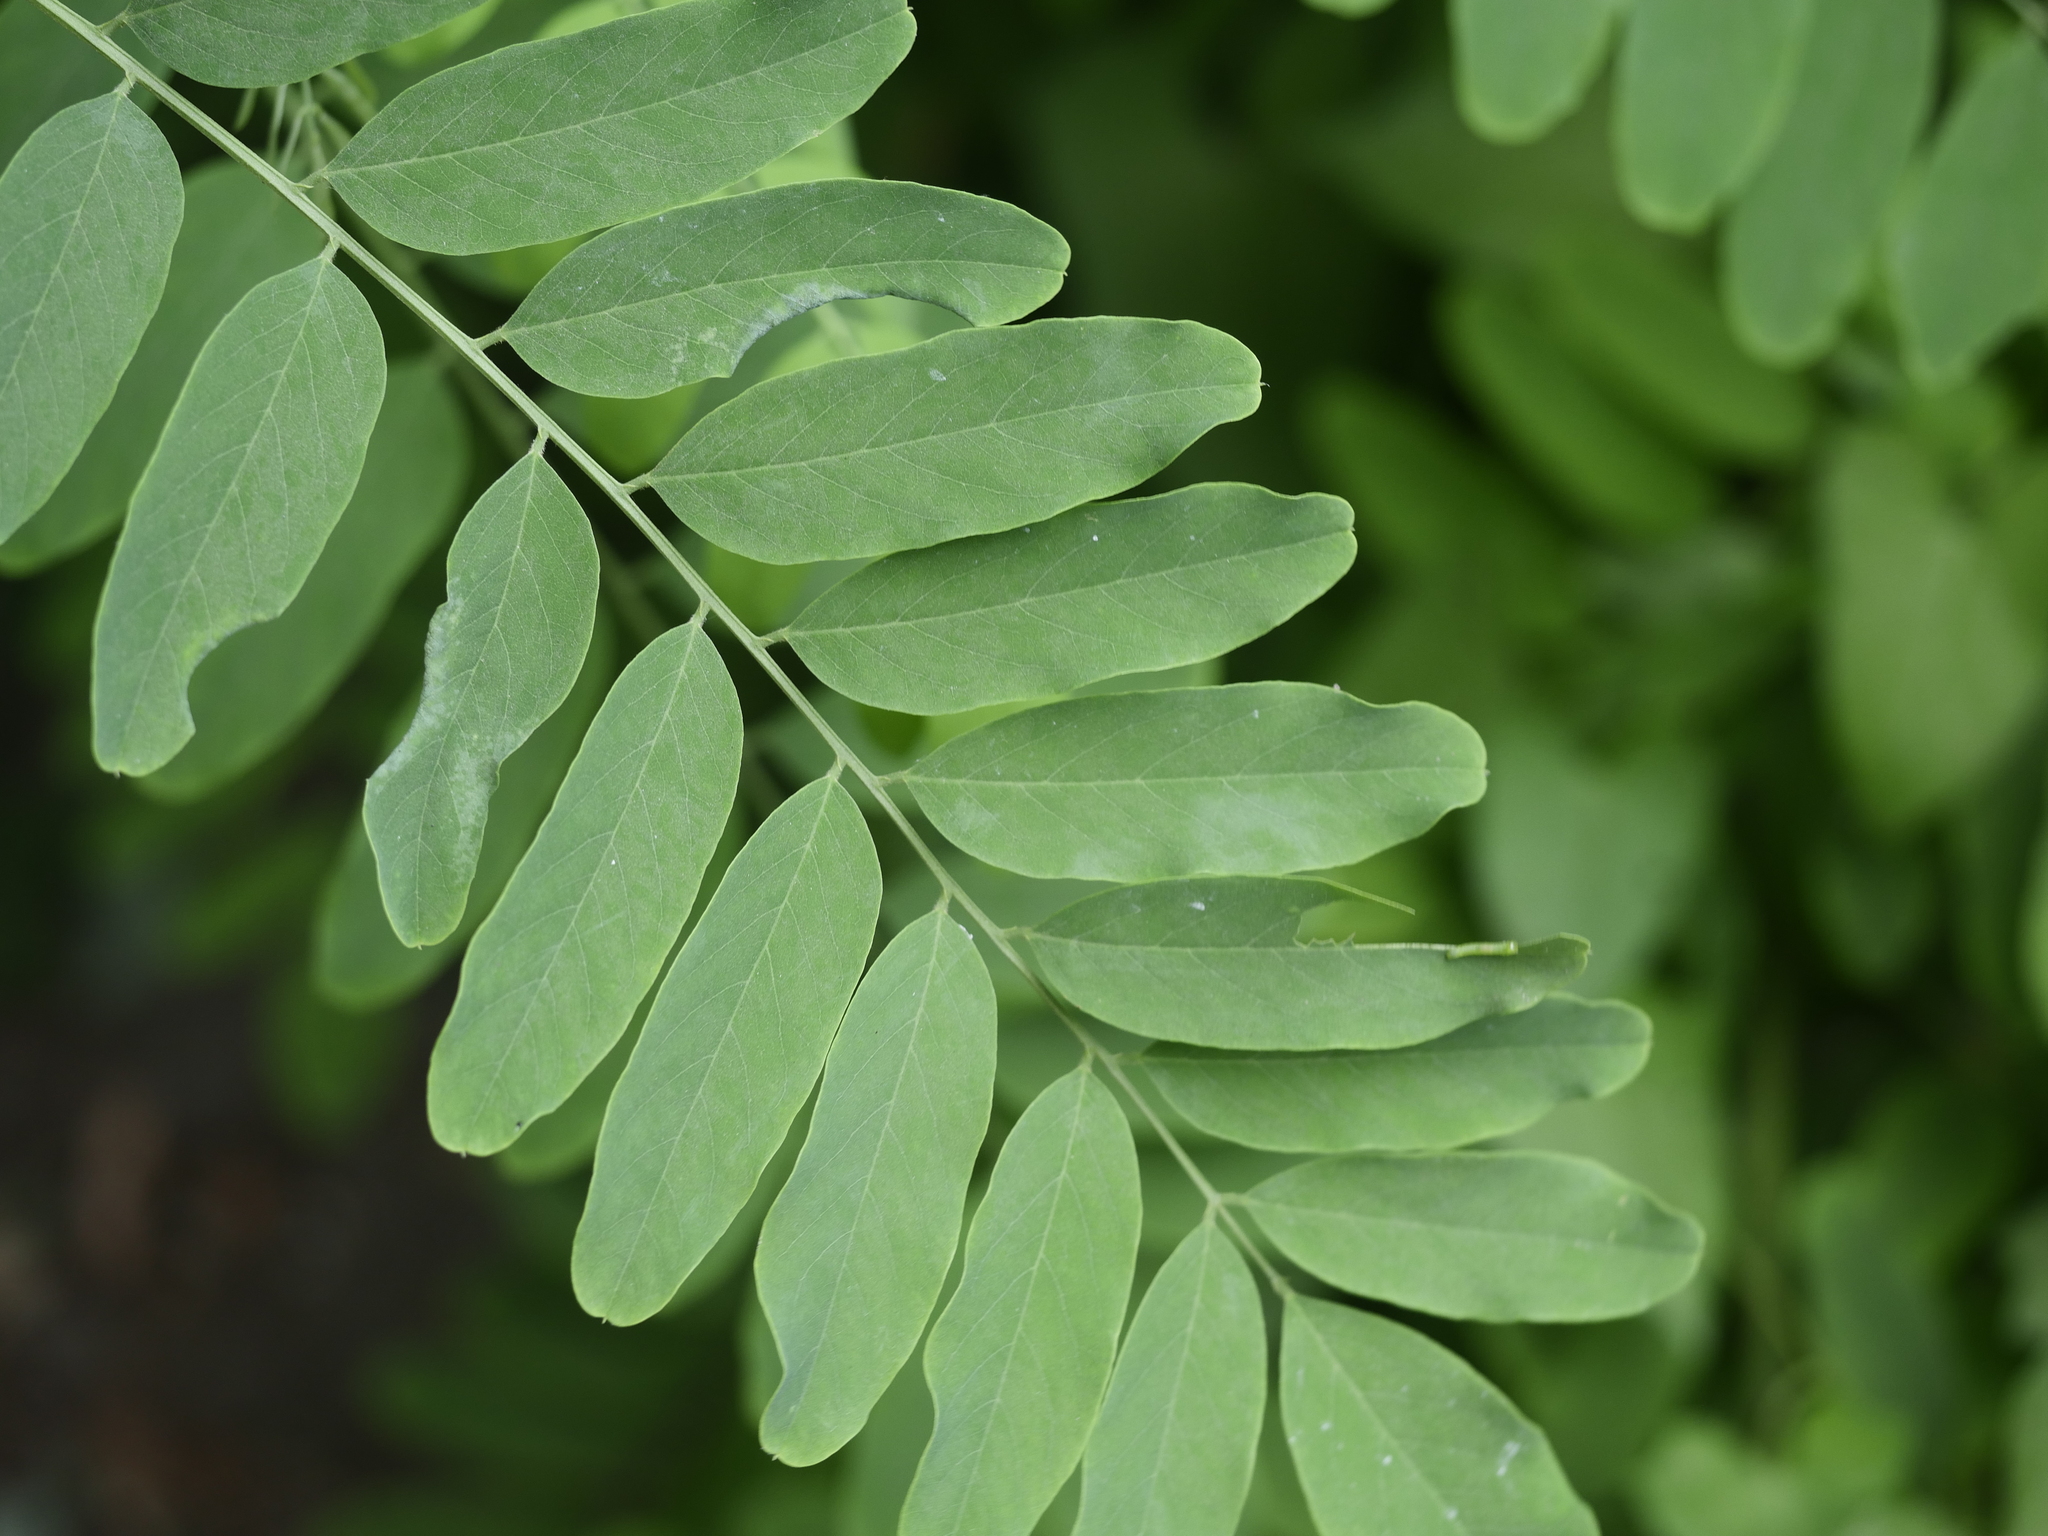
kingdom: Plantae
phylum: Tracheophyta
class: Magnoliopsida
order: Fabales
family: Fabaceae
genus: Robinia
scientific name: Robinia pseudoacacia
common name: Black locust
